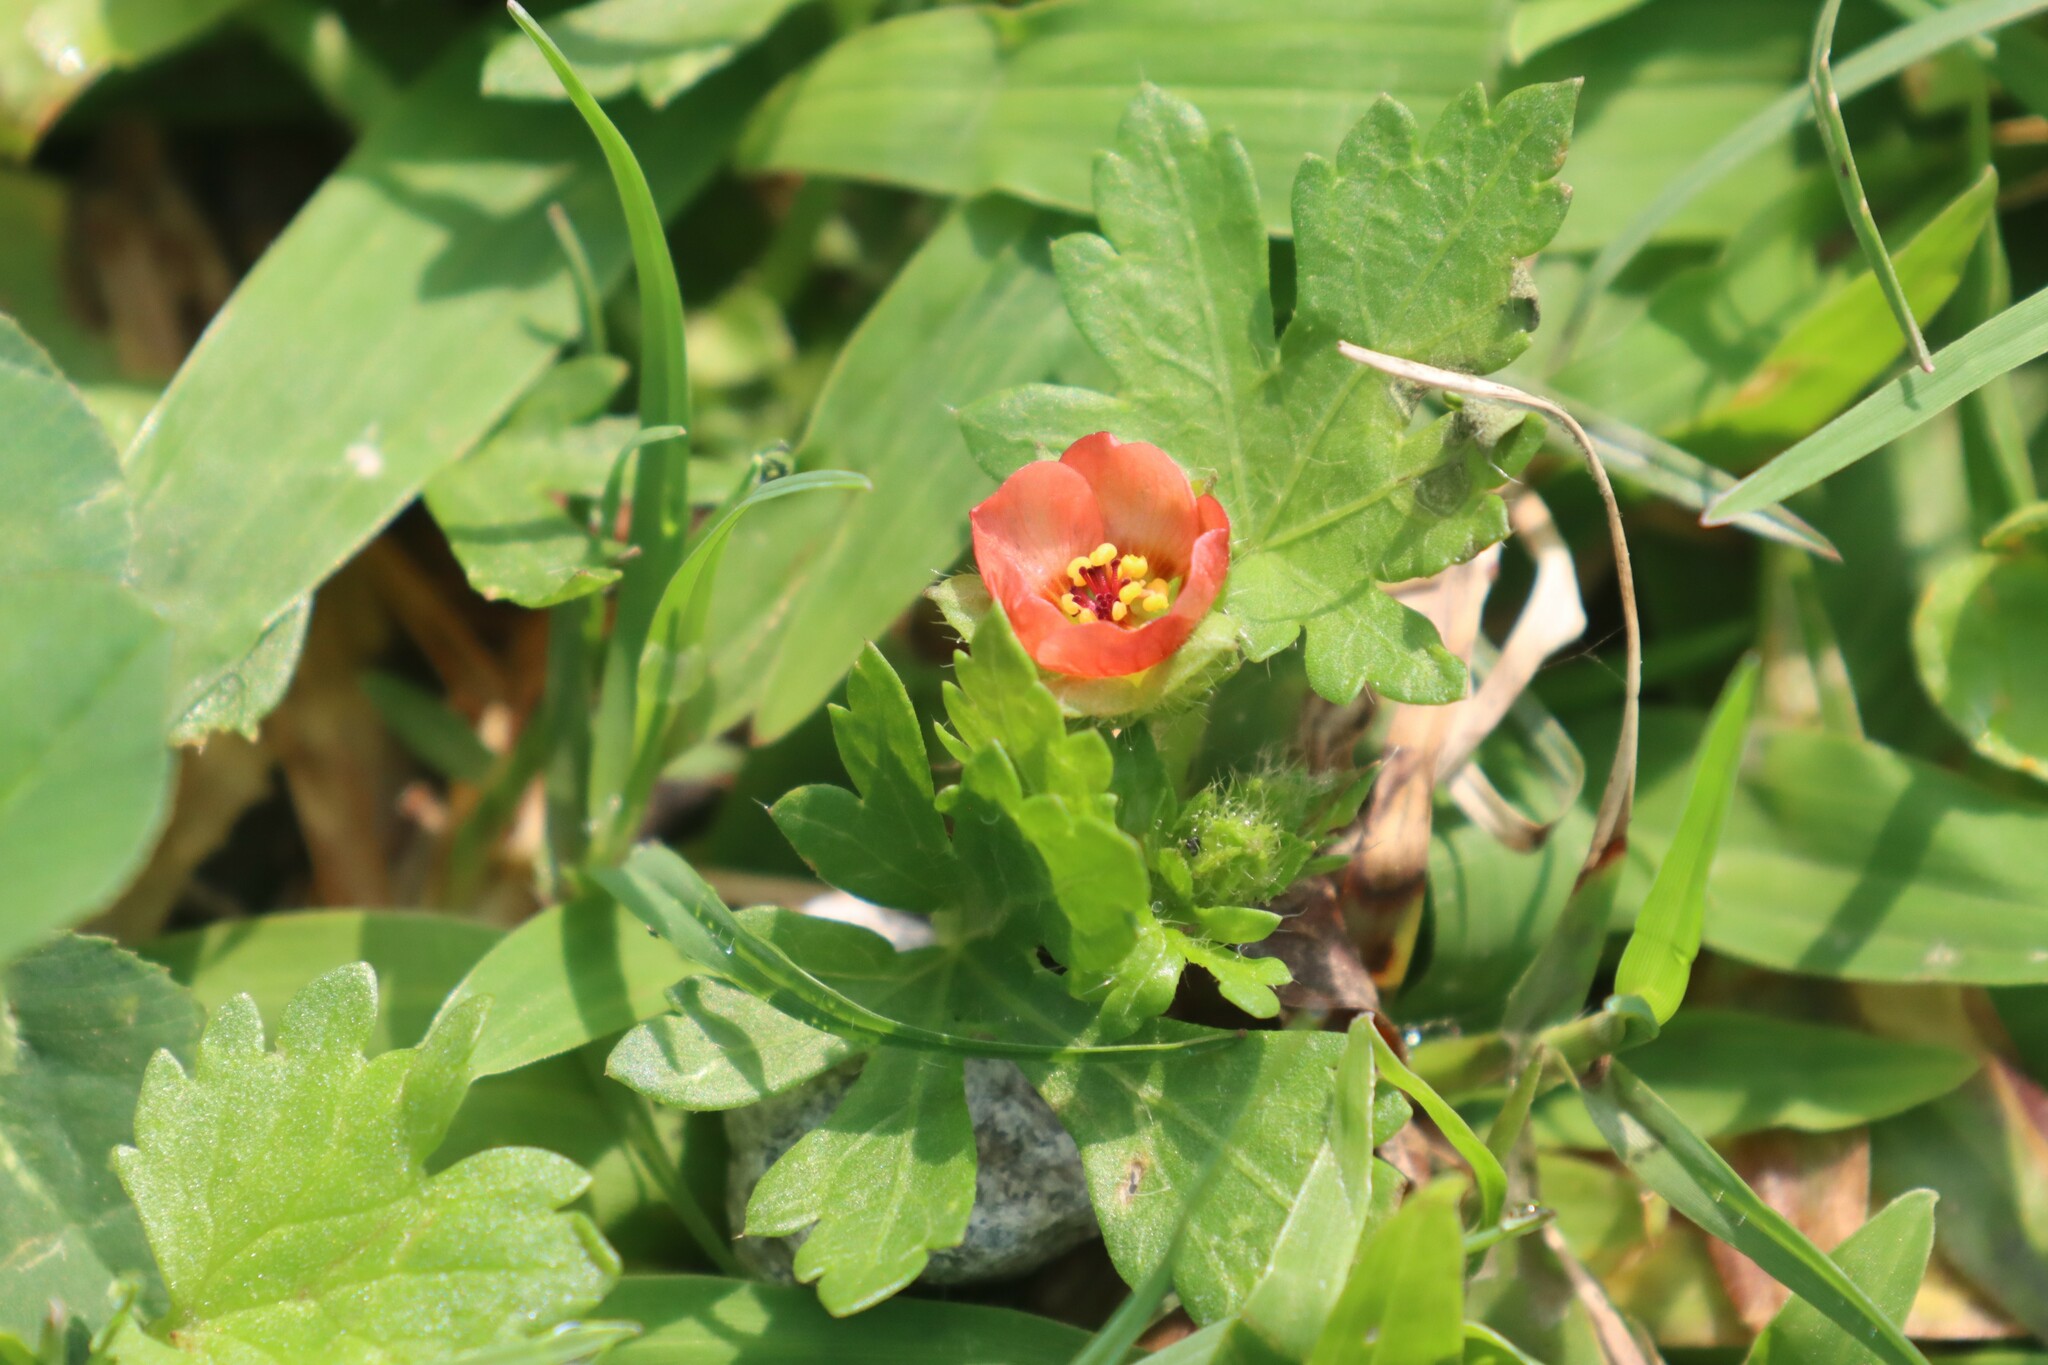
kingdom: Plantae
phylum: Tracheophyta
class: Magnoliopsida
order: Malvales
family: Malvaceae
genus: Modiola
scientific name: Modiola caroliniana
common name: Carolina bristlemallow
